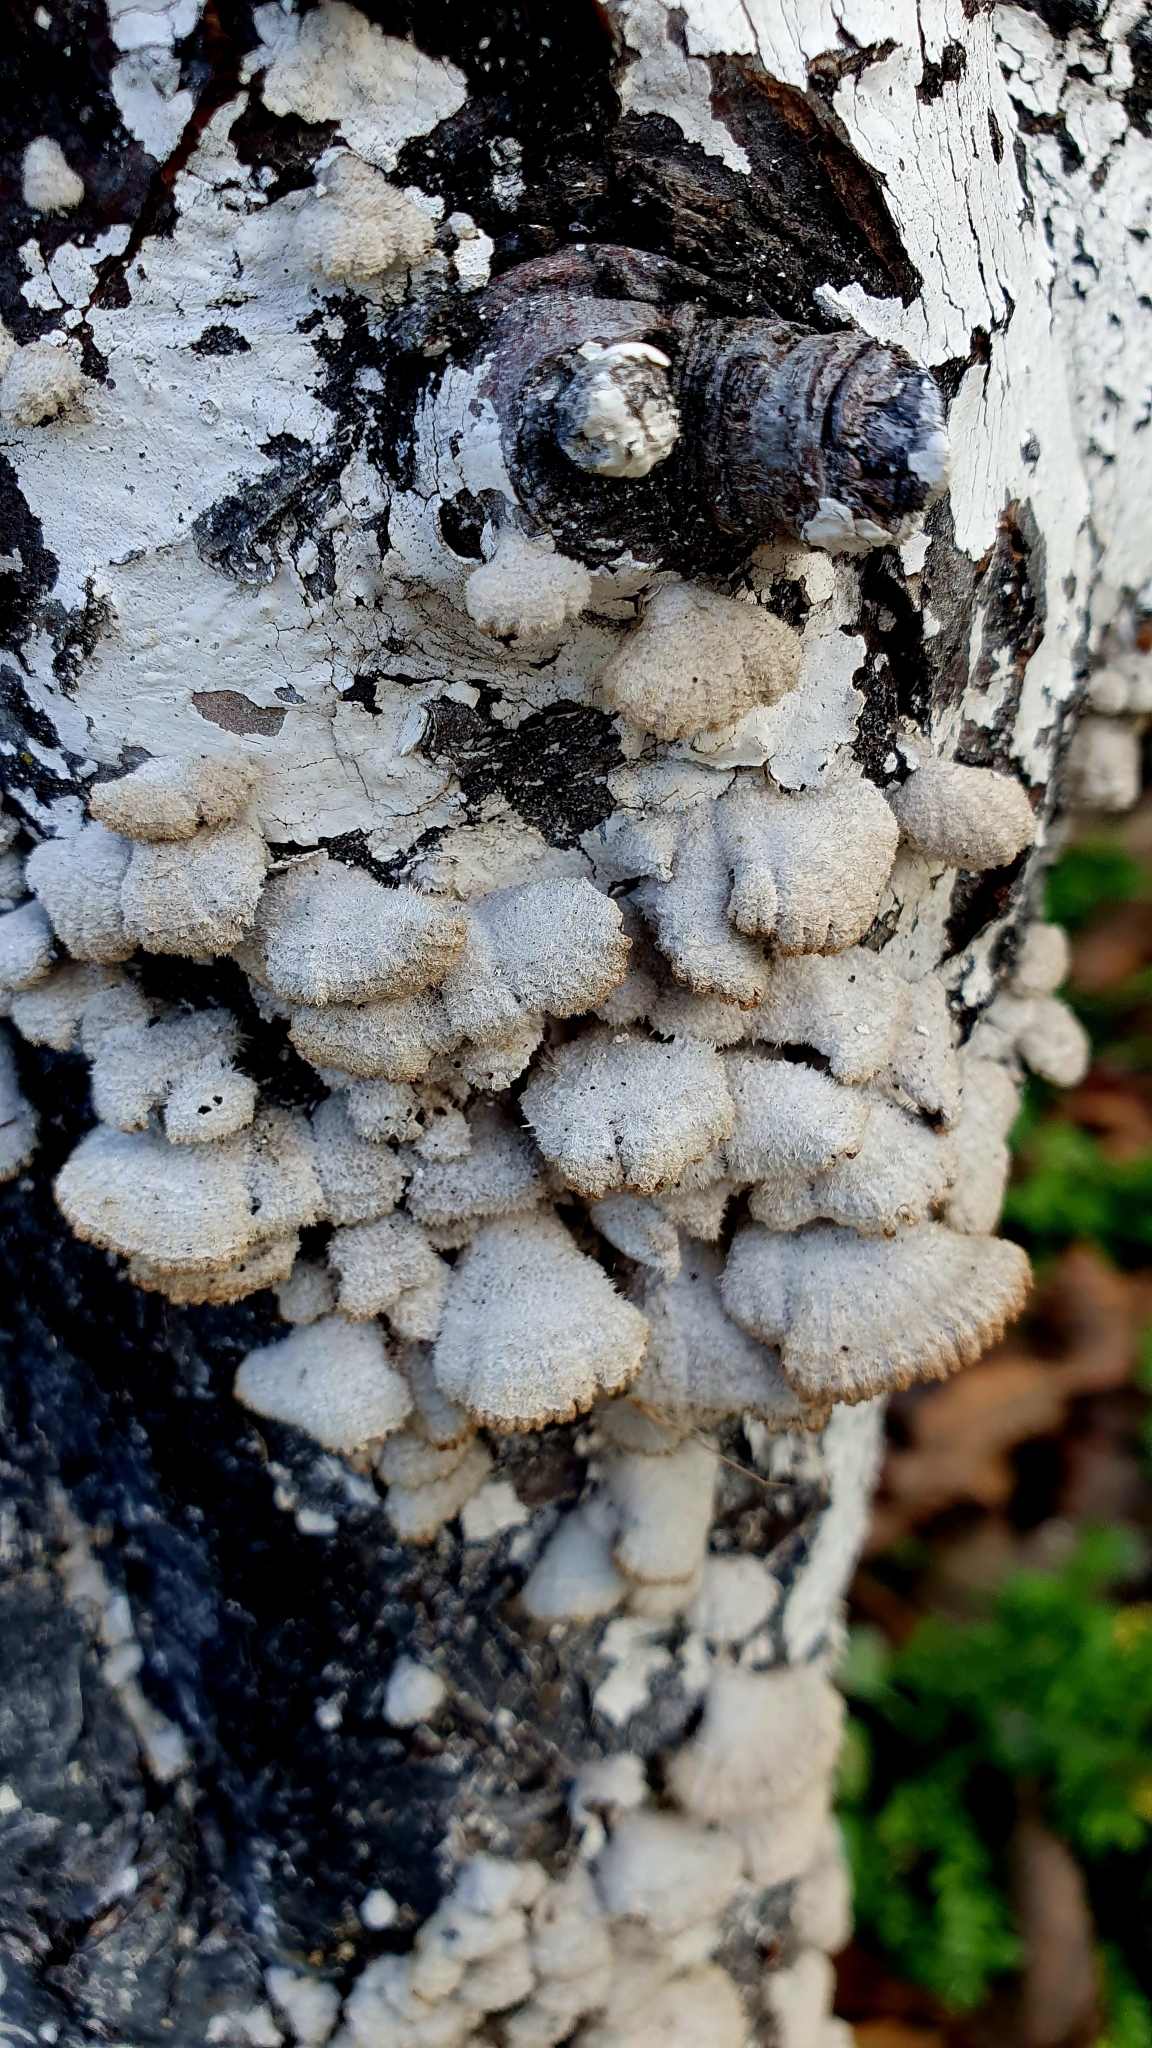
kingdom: Fungi
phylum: Basidiomycota
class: Agaricomycetes
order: Agaricales
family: Schizophyllaceae
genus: Schizophyllum
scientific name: Schizophyllum commune
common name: Common porecrust
